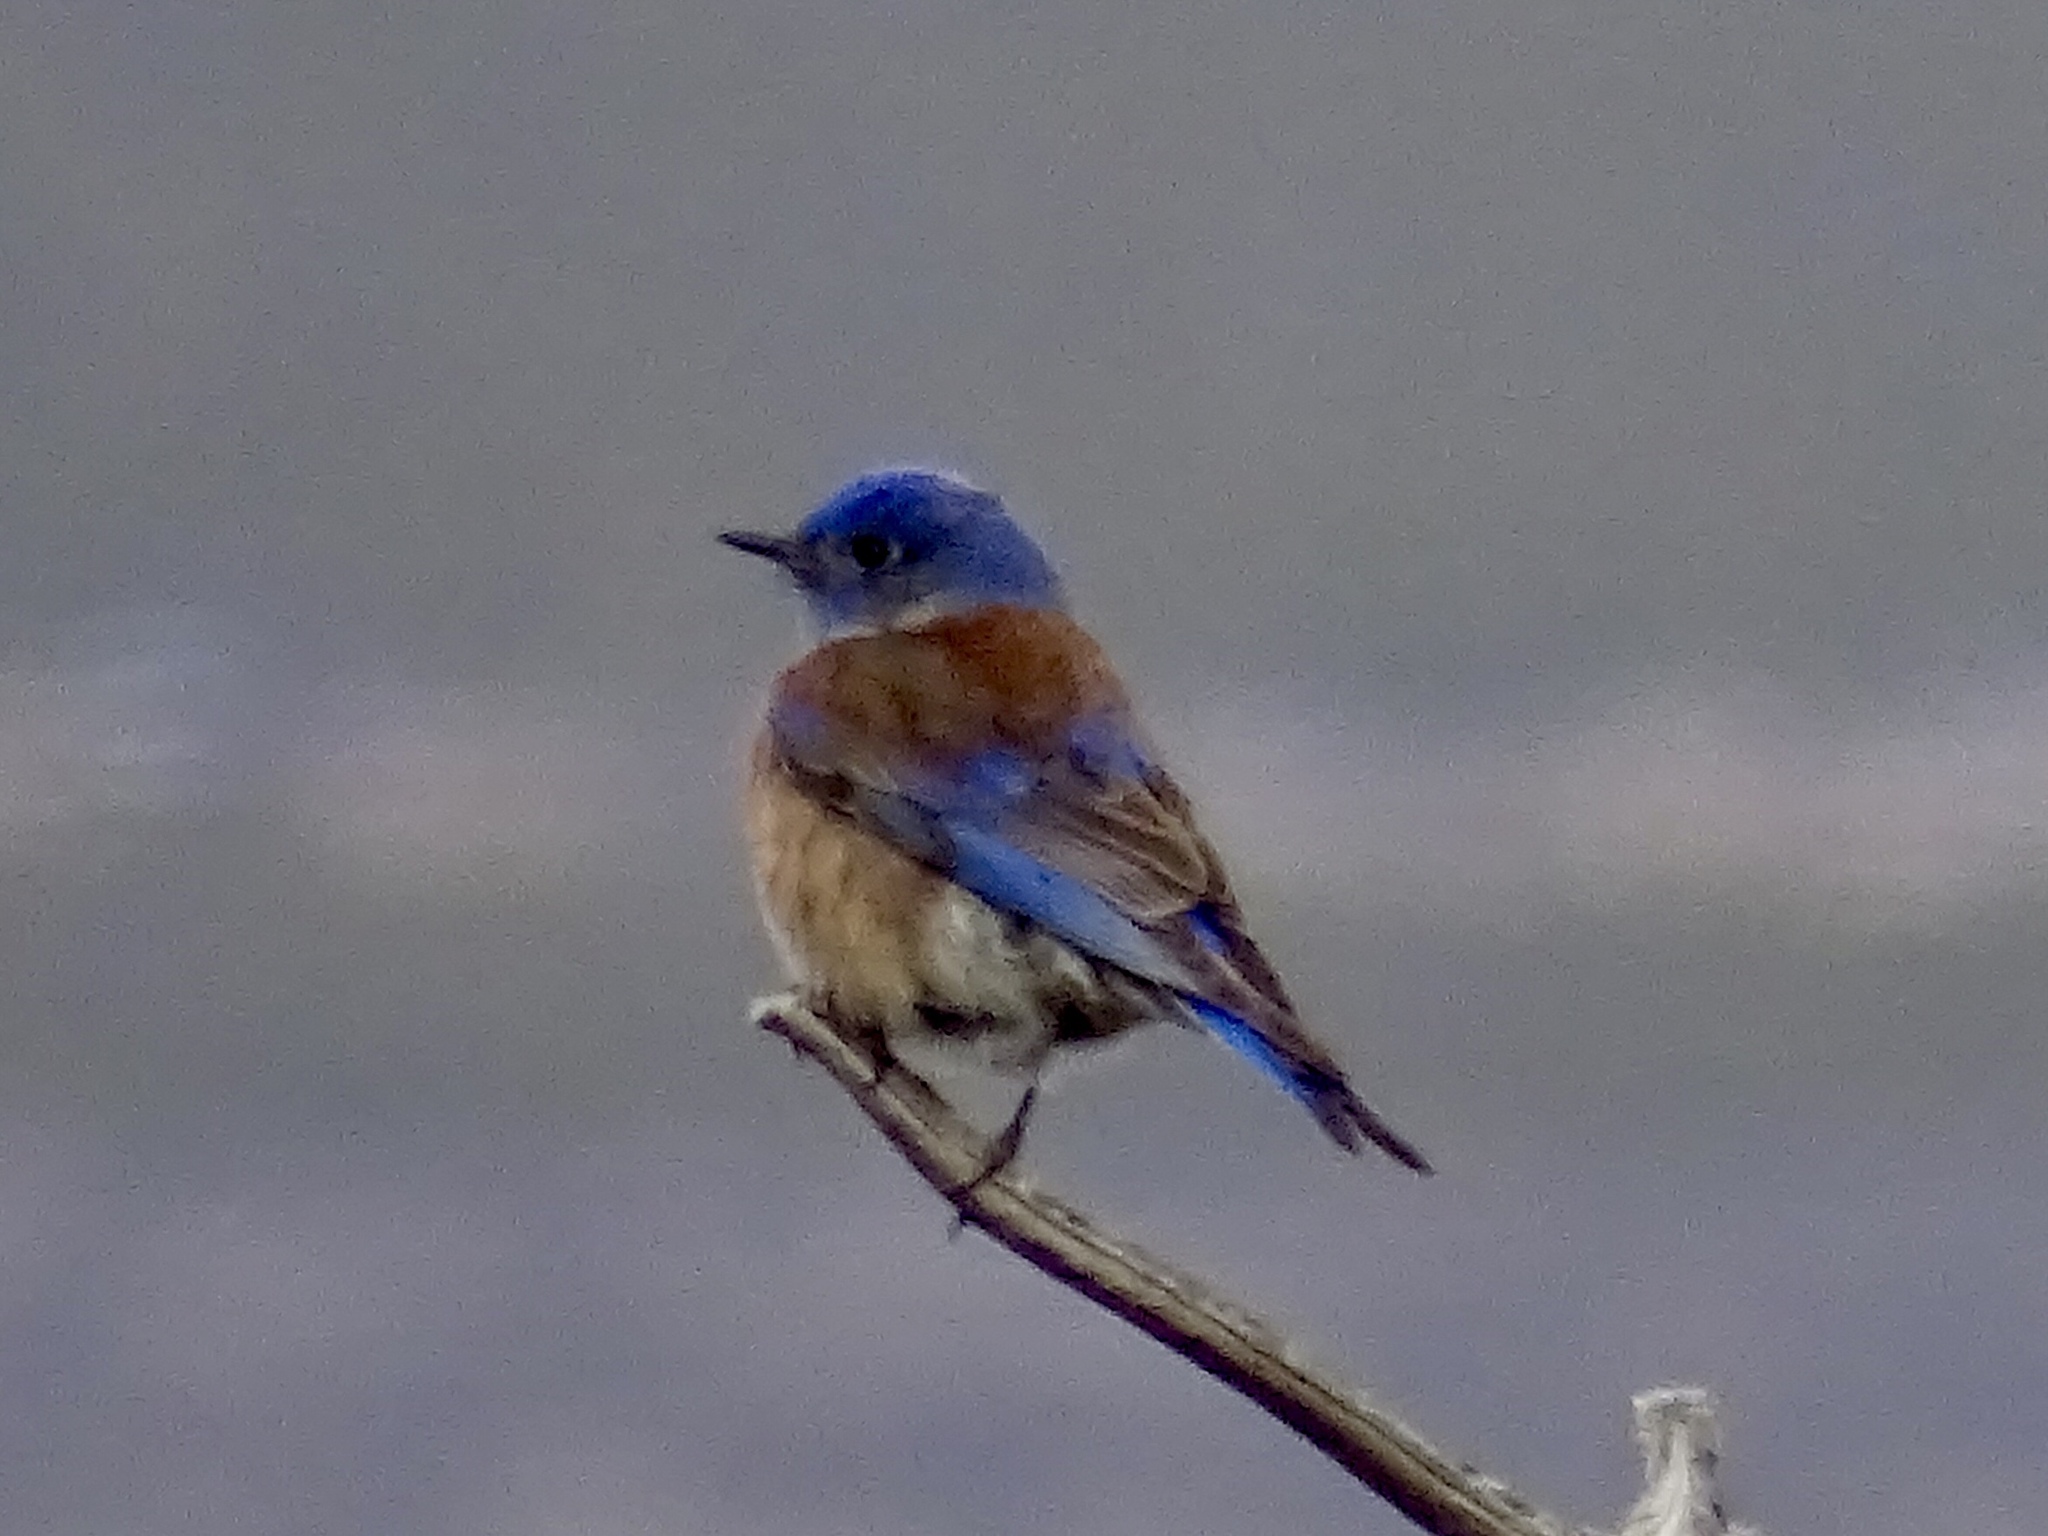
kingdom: Animalia
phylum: Chordata
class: Aves
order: Passeriformes
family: Turdidae
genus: Sialia
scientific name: Sialia mexicana
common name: Western bluebird
